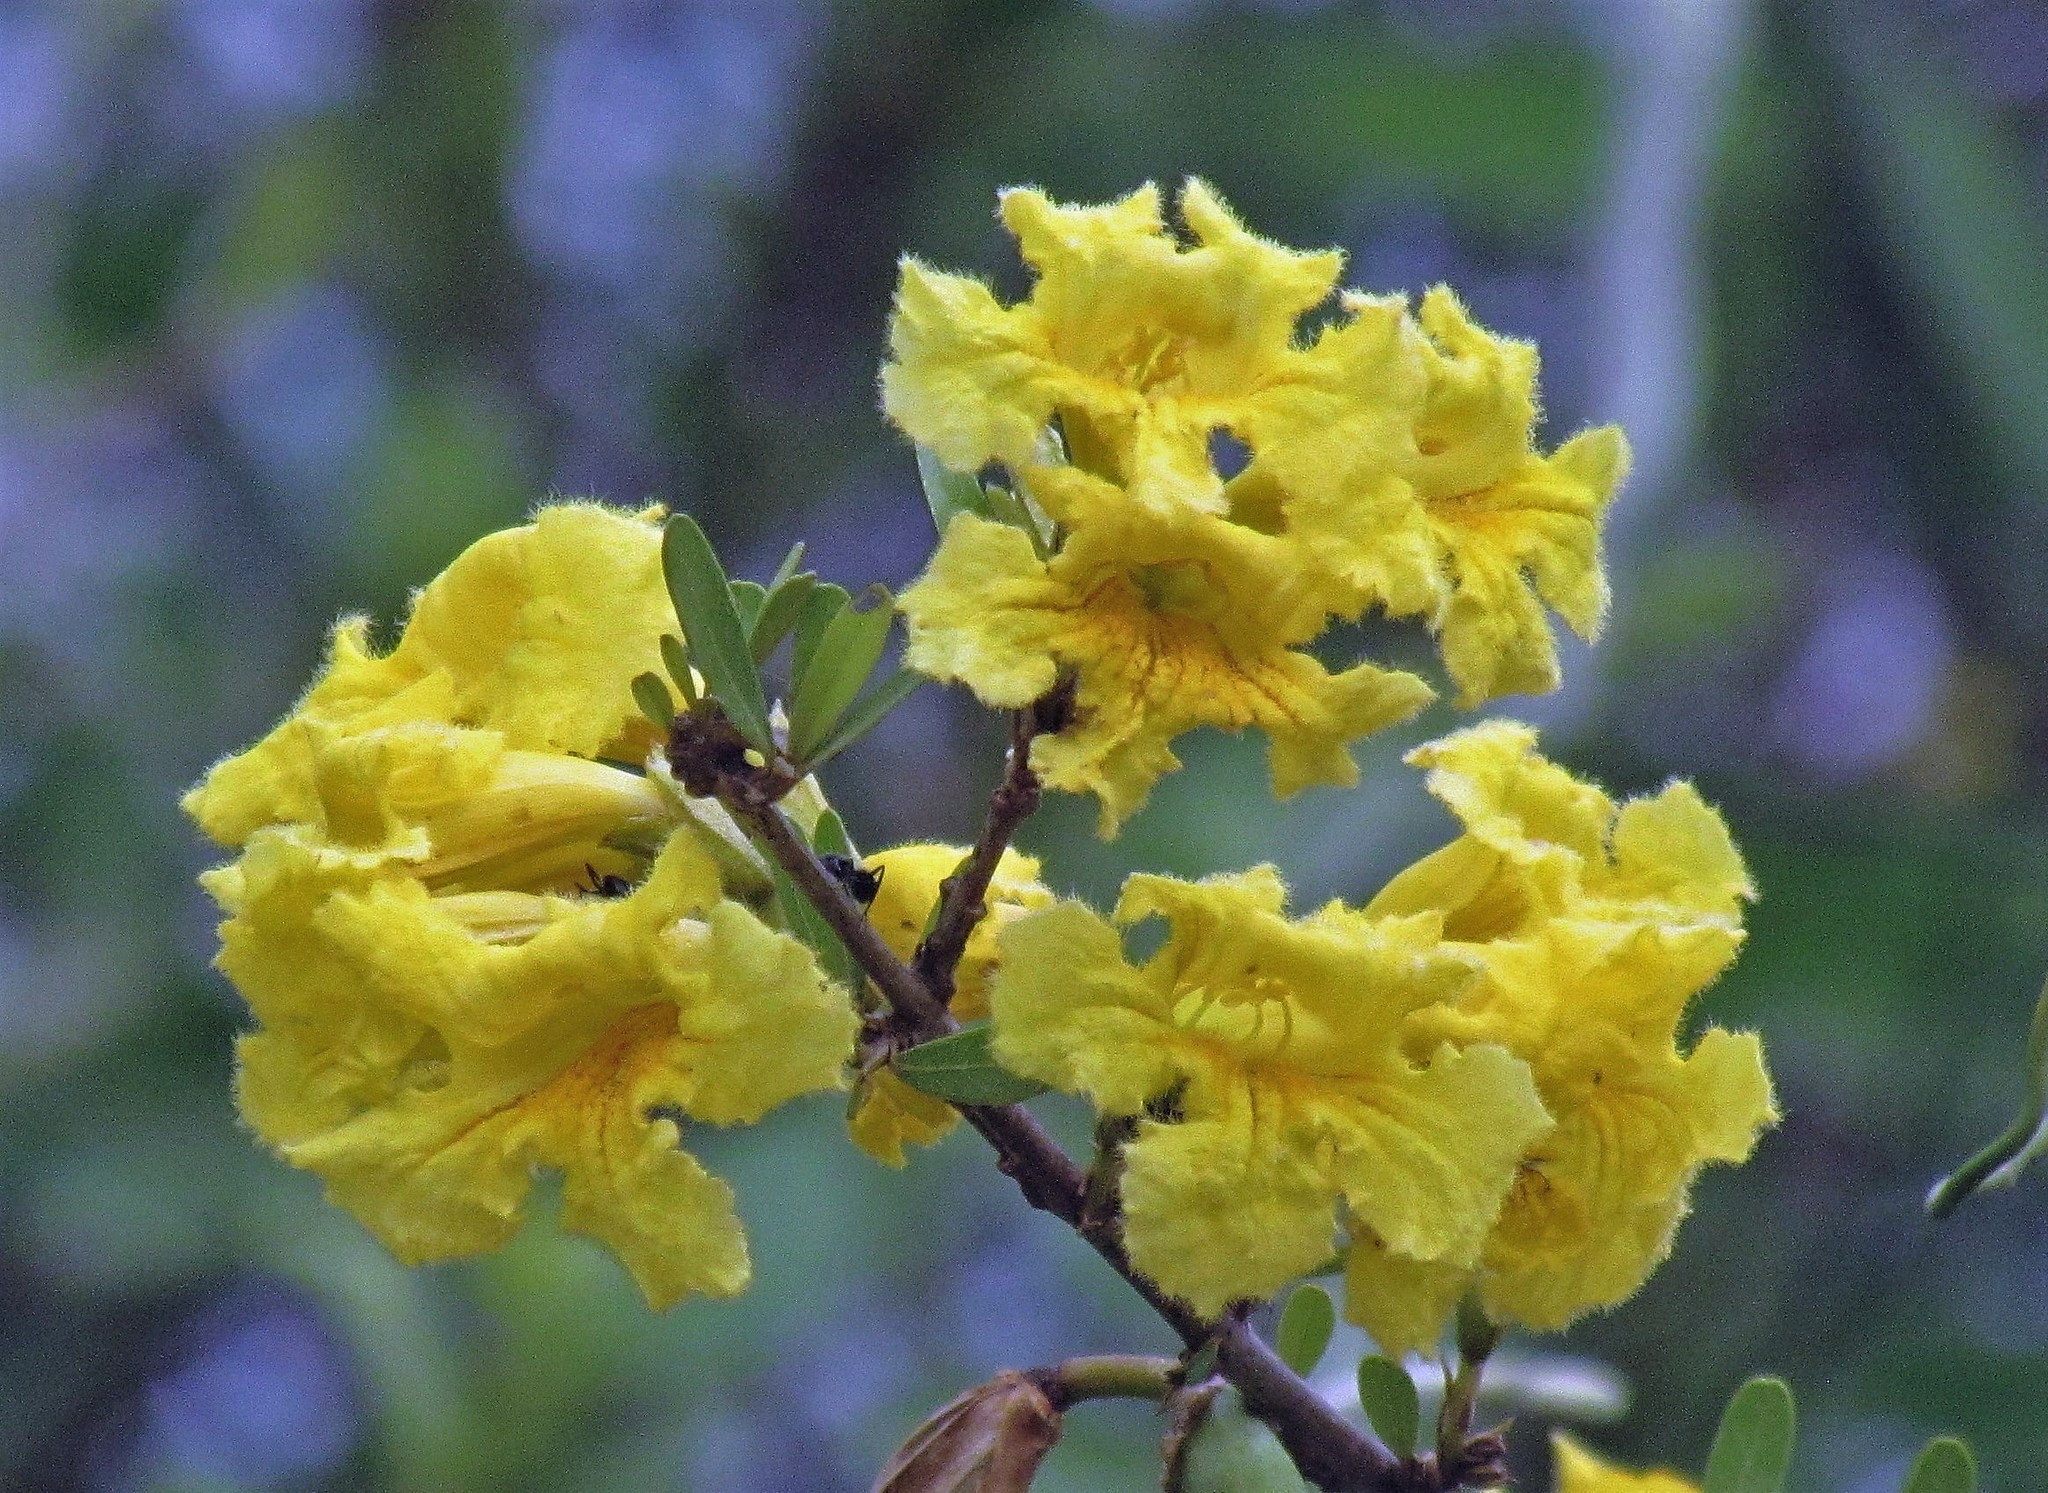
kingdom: Plantae
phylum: Tracheophyta
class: Magnoliopsida
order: Lamiales
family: Bignoniaceae
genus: Tabebuia
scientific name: Tabebuia nodosa
